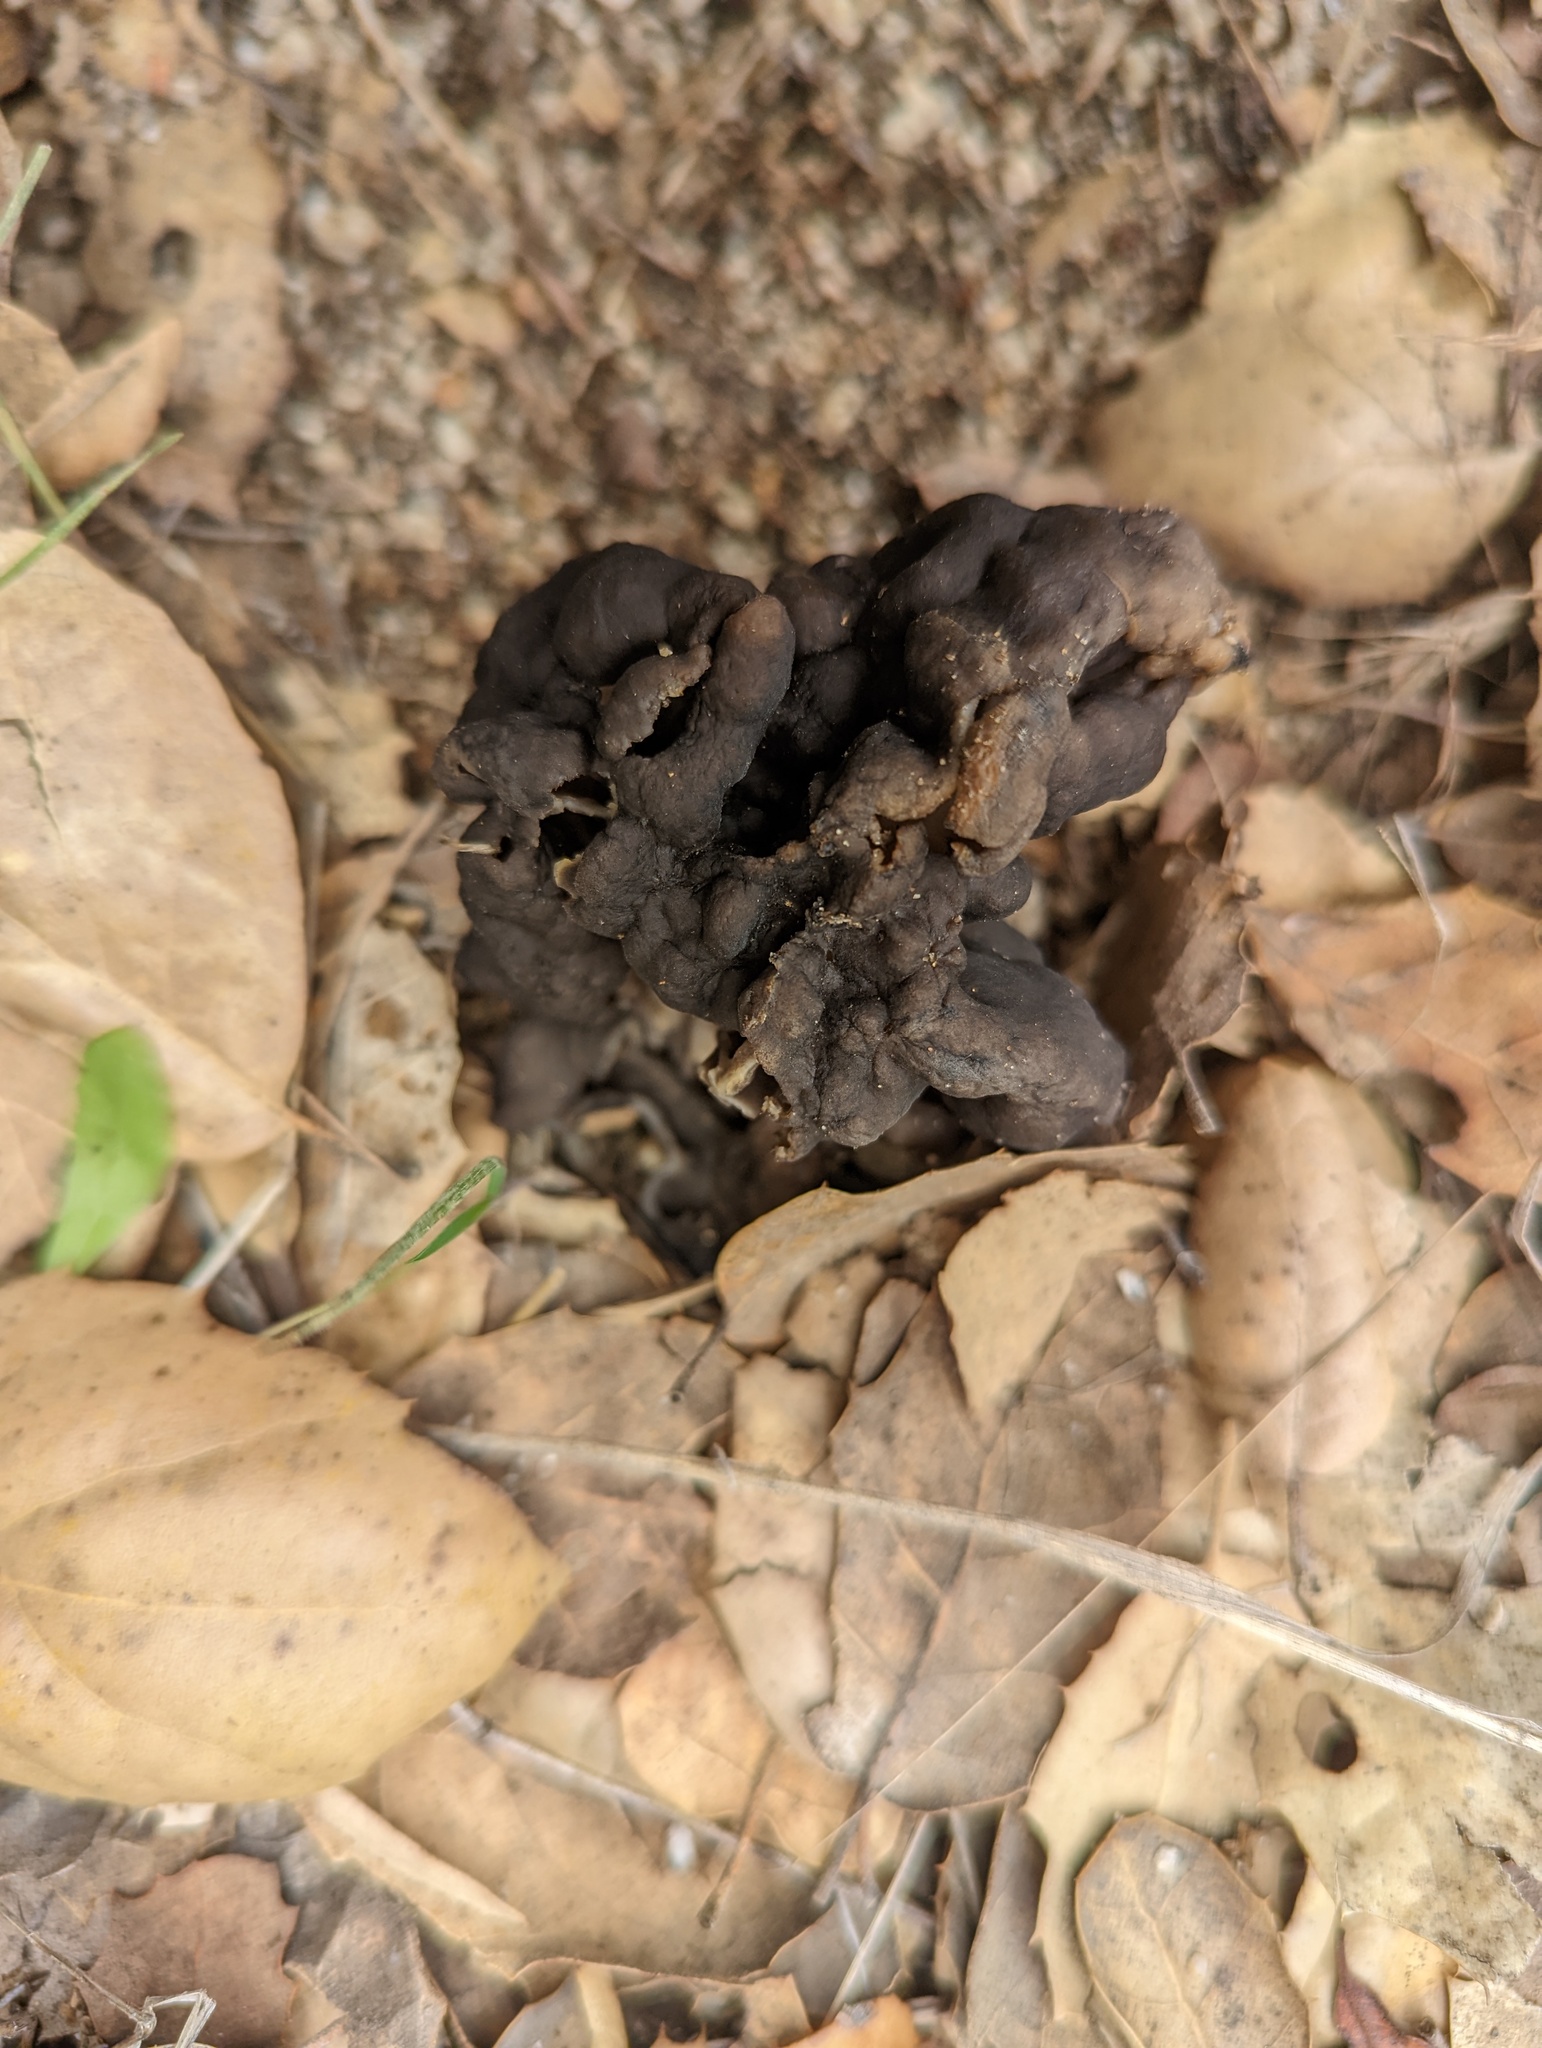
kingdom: Fungi
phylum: Ascomycota
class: Pezizomycetes
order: Pezizales
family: Helvellaceae
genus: Helvella
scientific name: Helvella dryophila
